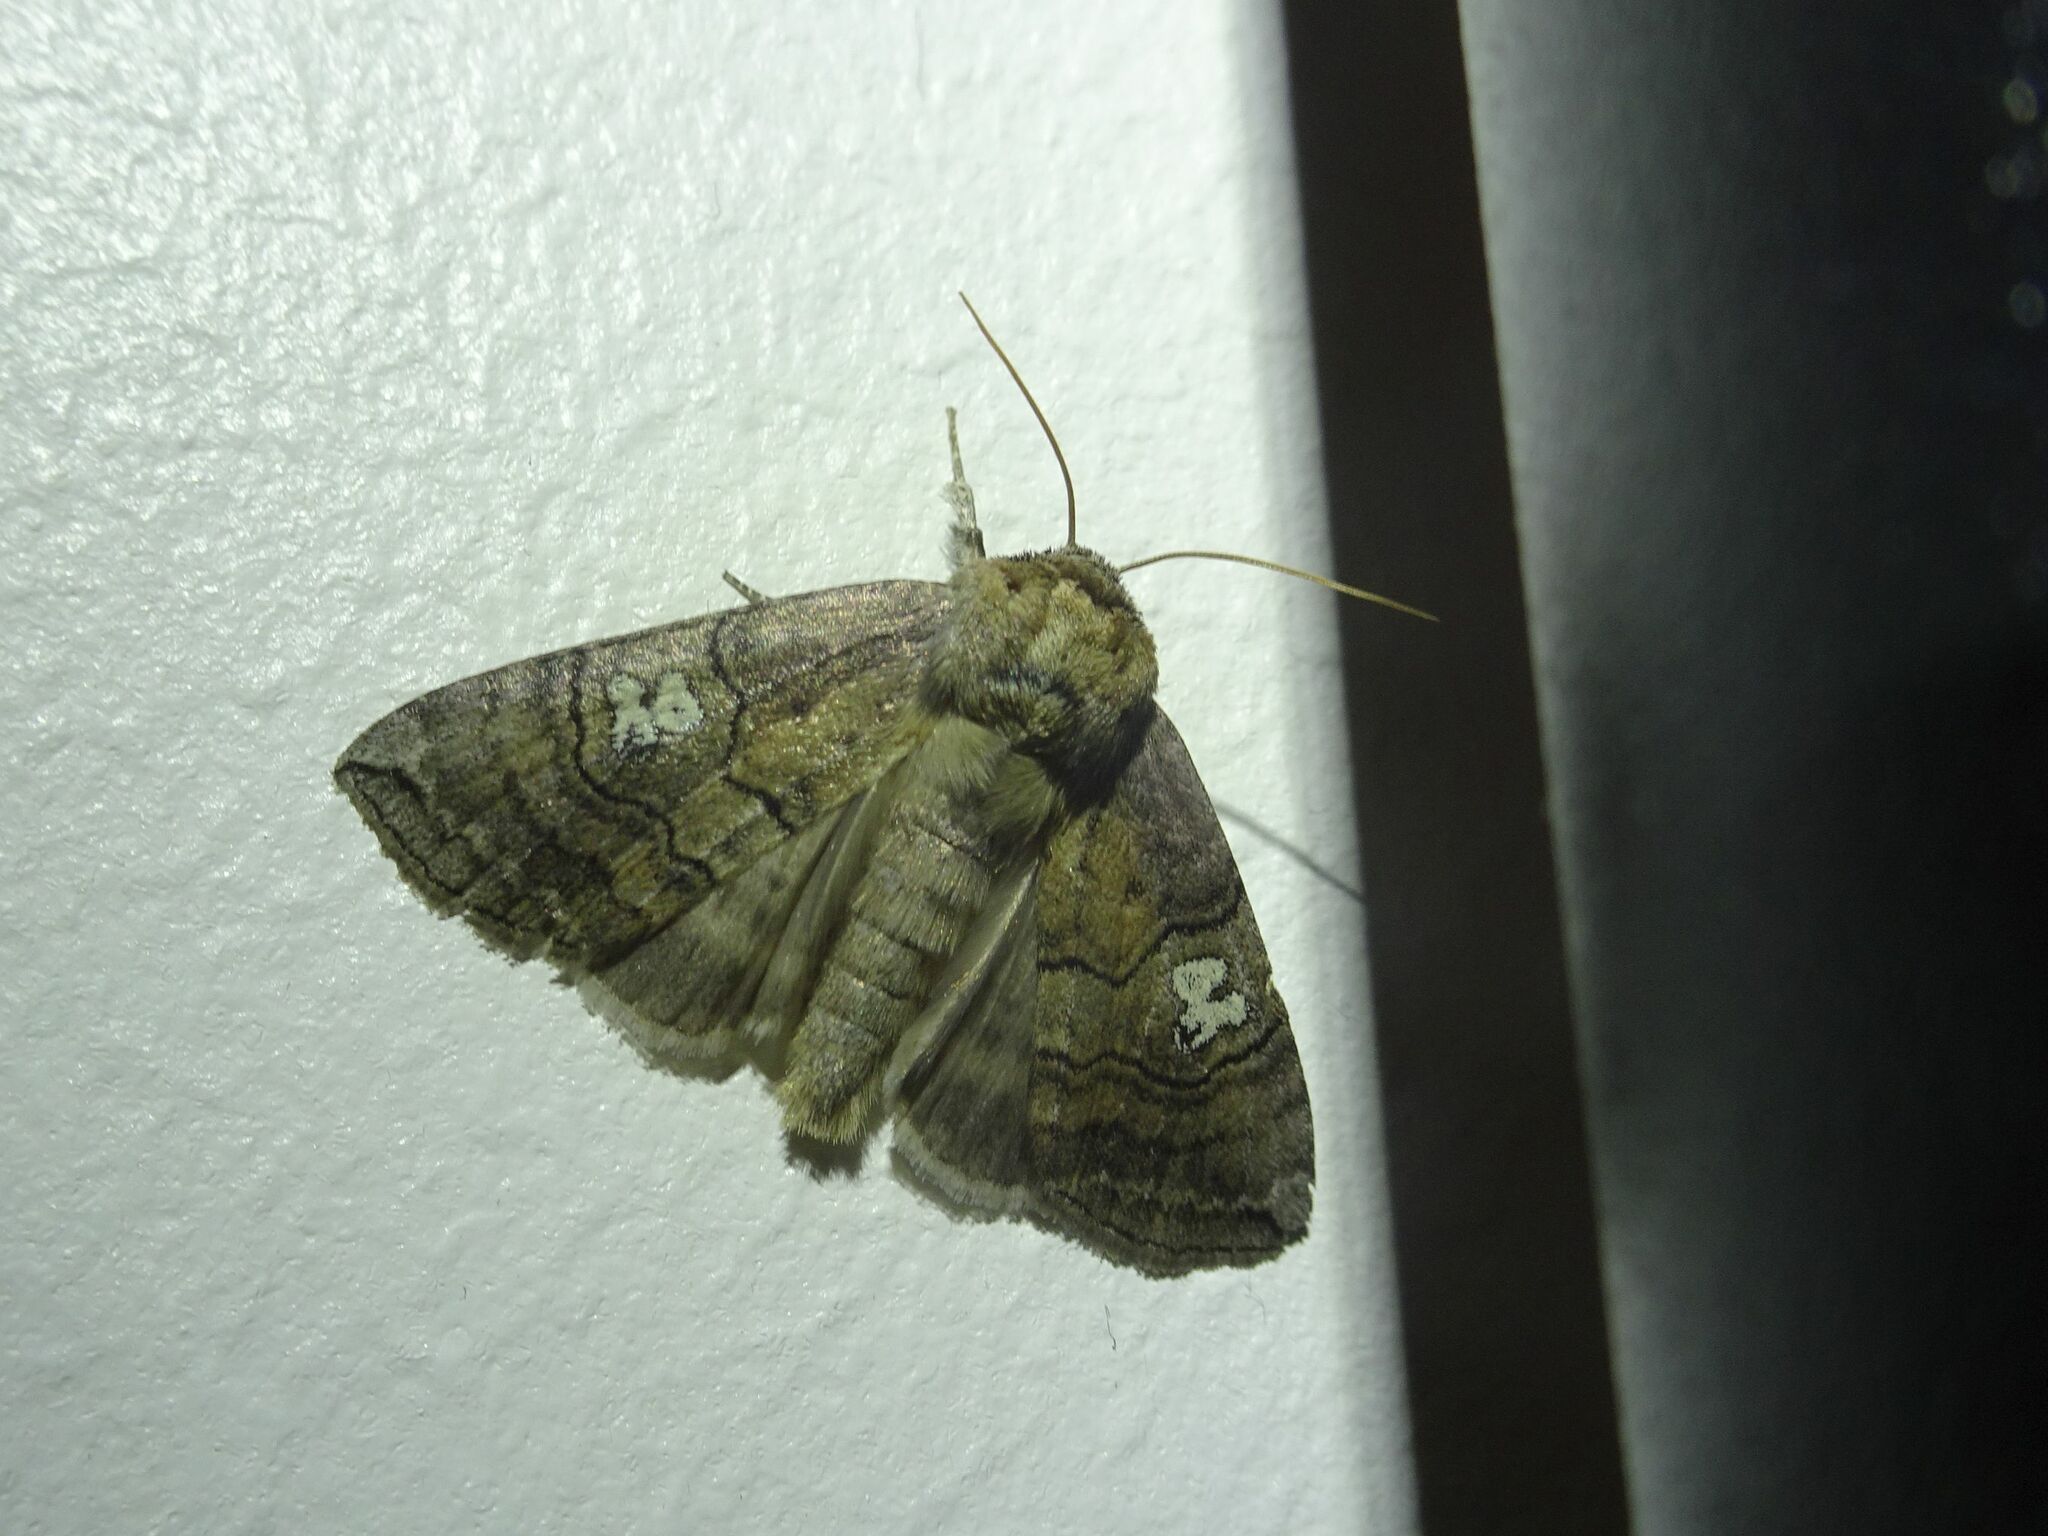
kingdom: Animalia
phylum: Arthropoda
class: Insecta
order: Lepidoptera
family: Drepanidae
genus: Tethea
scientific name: Tethea ocularis
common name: Figure of eighty
